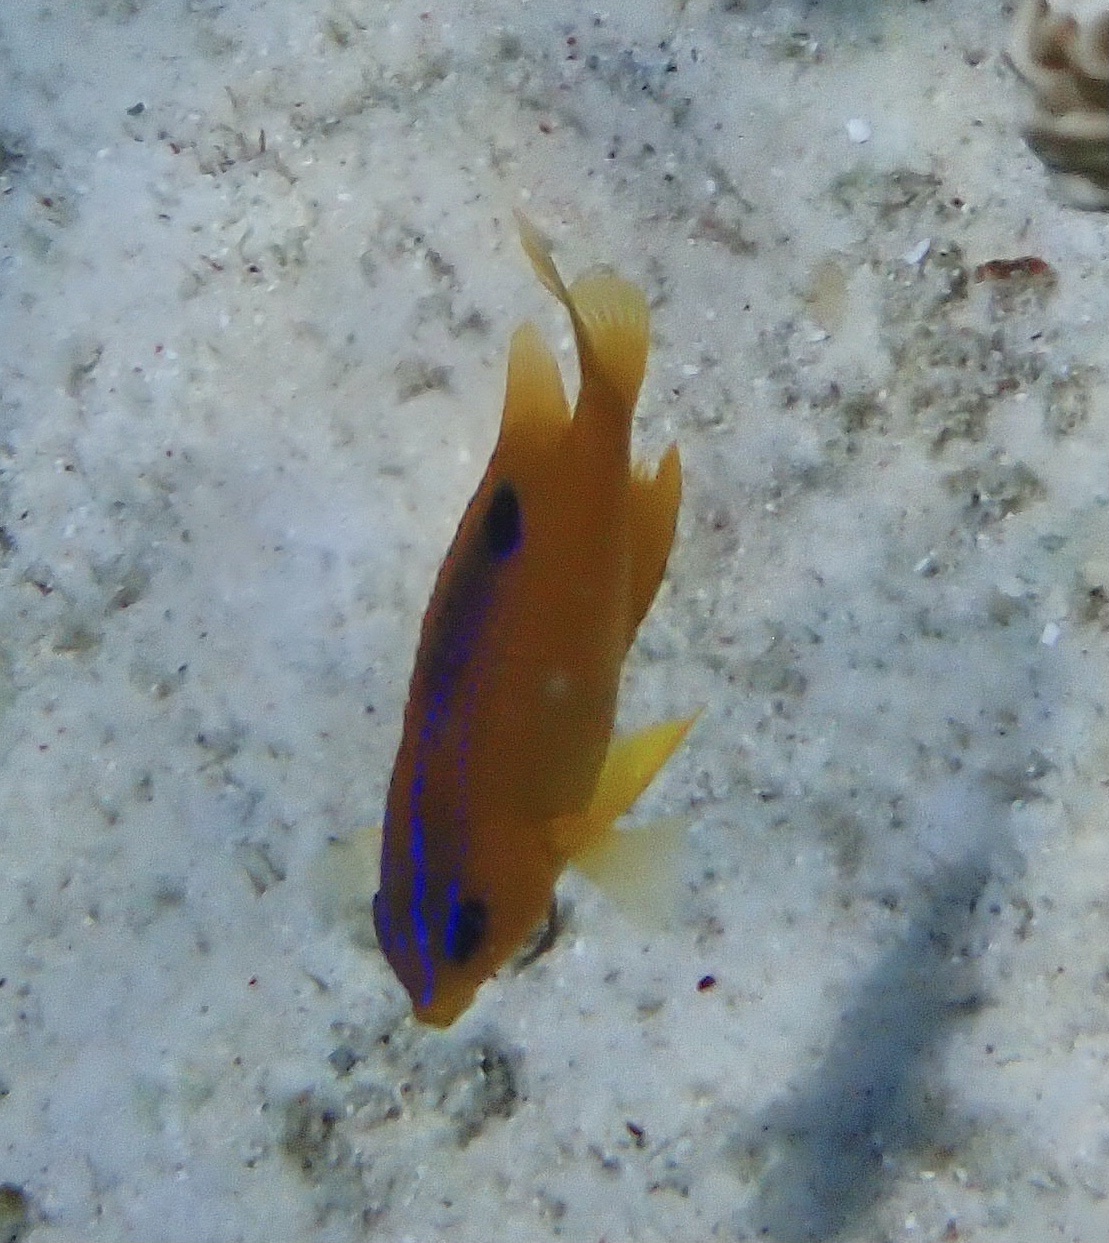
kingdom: Animalia
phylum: Chordata
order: Perciformes
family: Pomacentridae
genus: Stegastes
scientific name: Stegastes diencaeus
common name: Longfin damselfish
